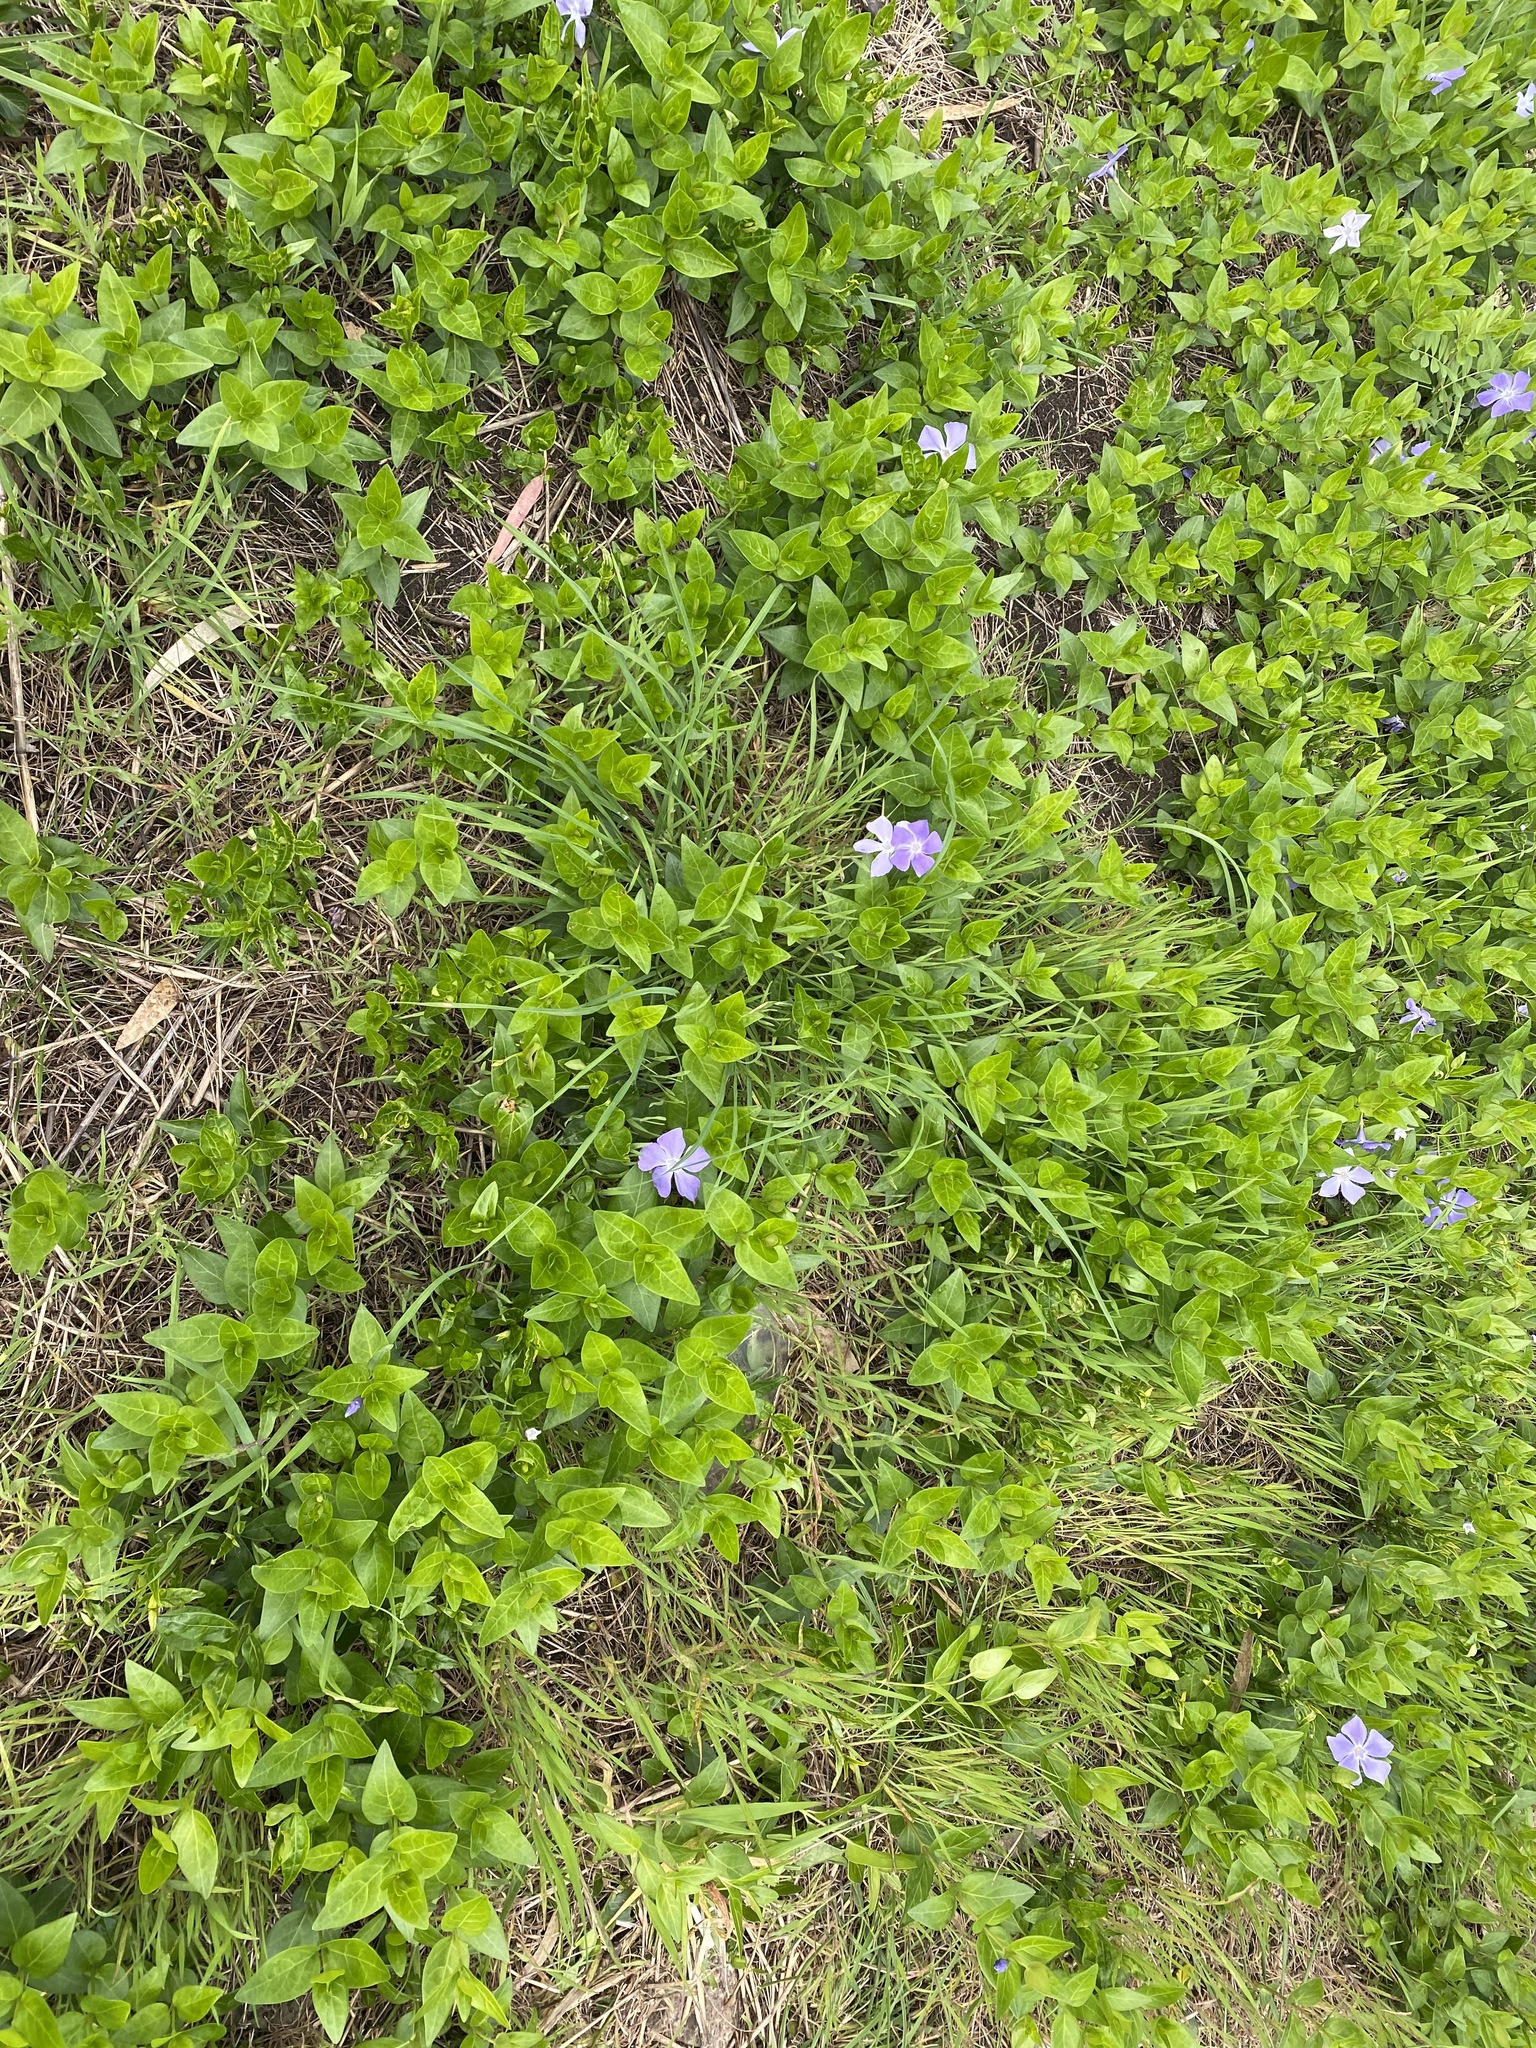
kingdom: Plantae
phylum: Tracheophyta
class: Magnoliopsida
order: Gentianales
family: Apocynaceae
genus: Vinca
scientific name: Vinca major
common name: Greater periwinkle
